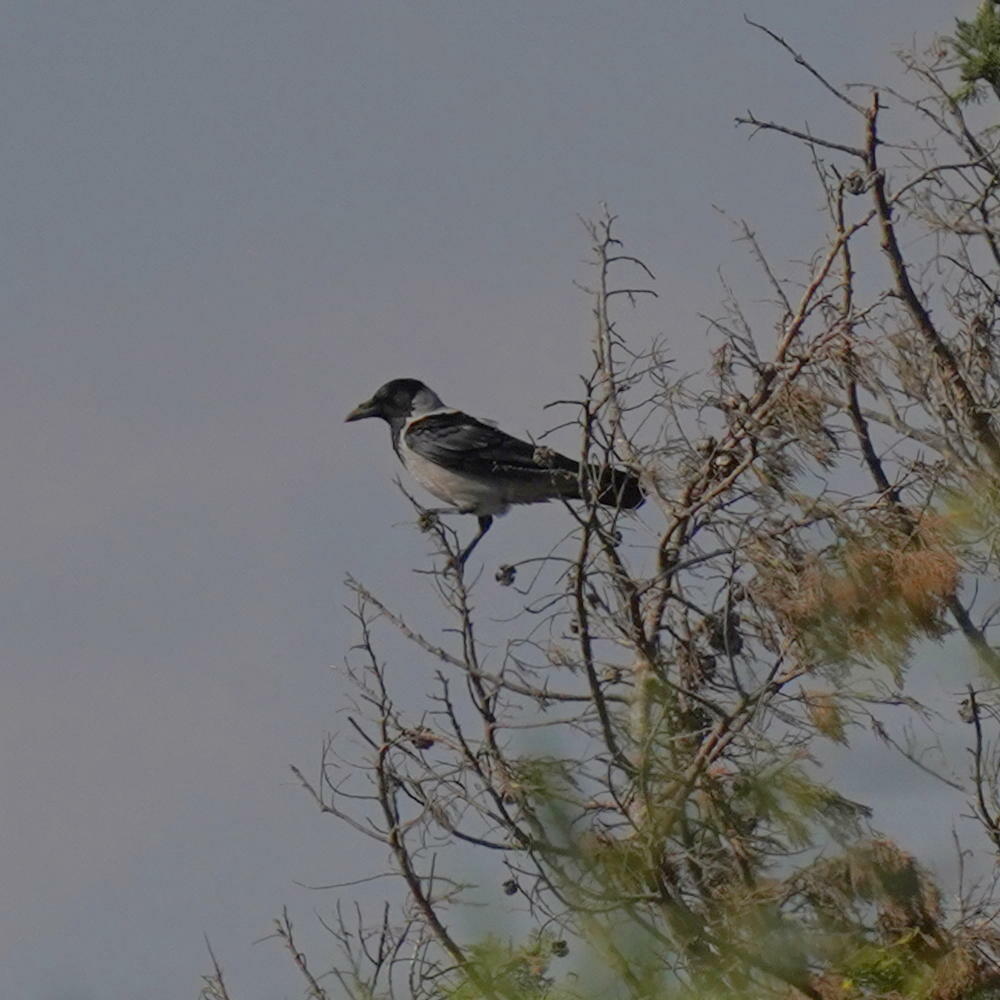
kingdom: Animalia
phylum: Chordata
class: Aves
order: Passeriformes
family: Corvidae
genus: Corvus
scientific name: Corvus cornix
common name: Hooded crow
